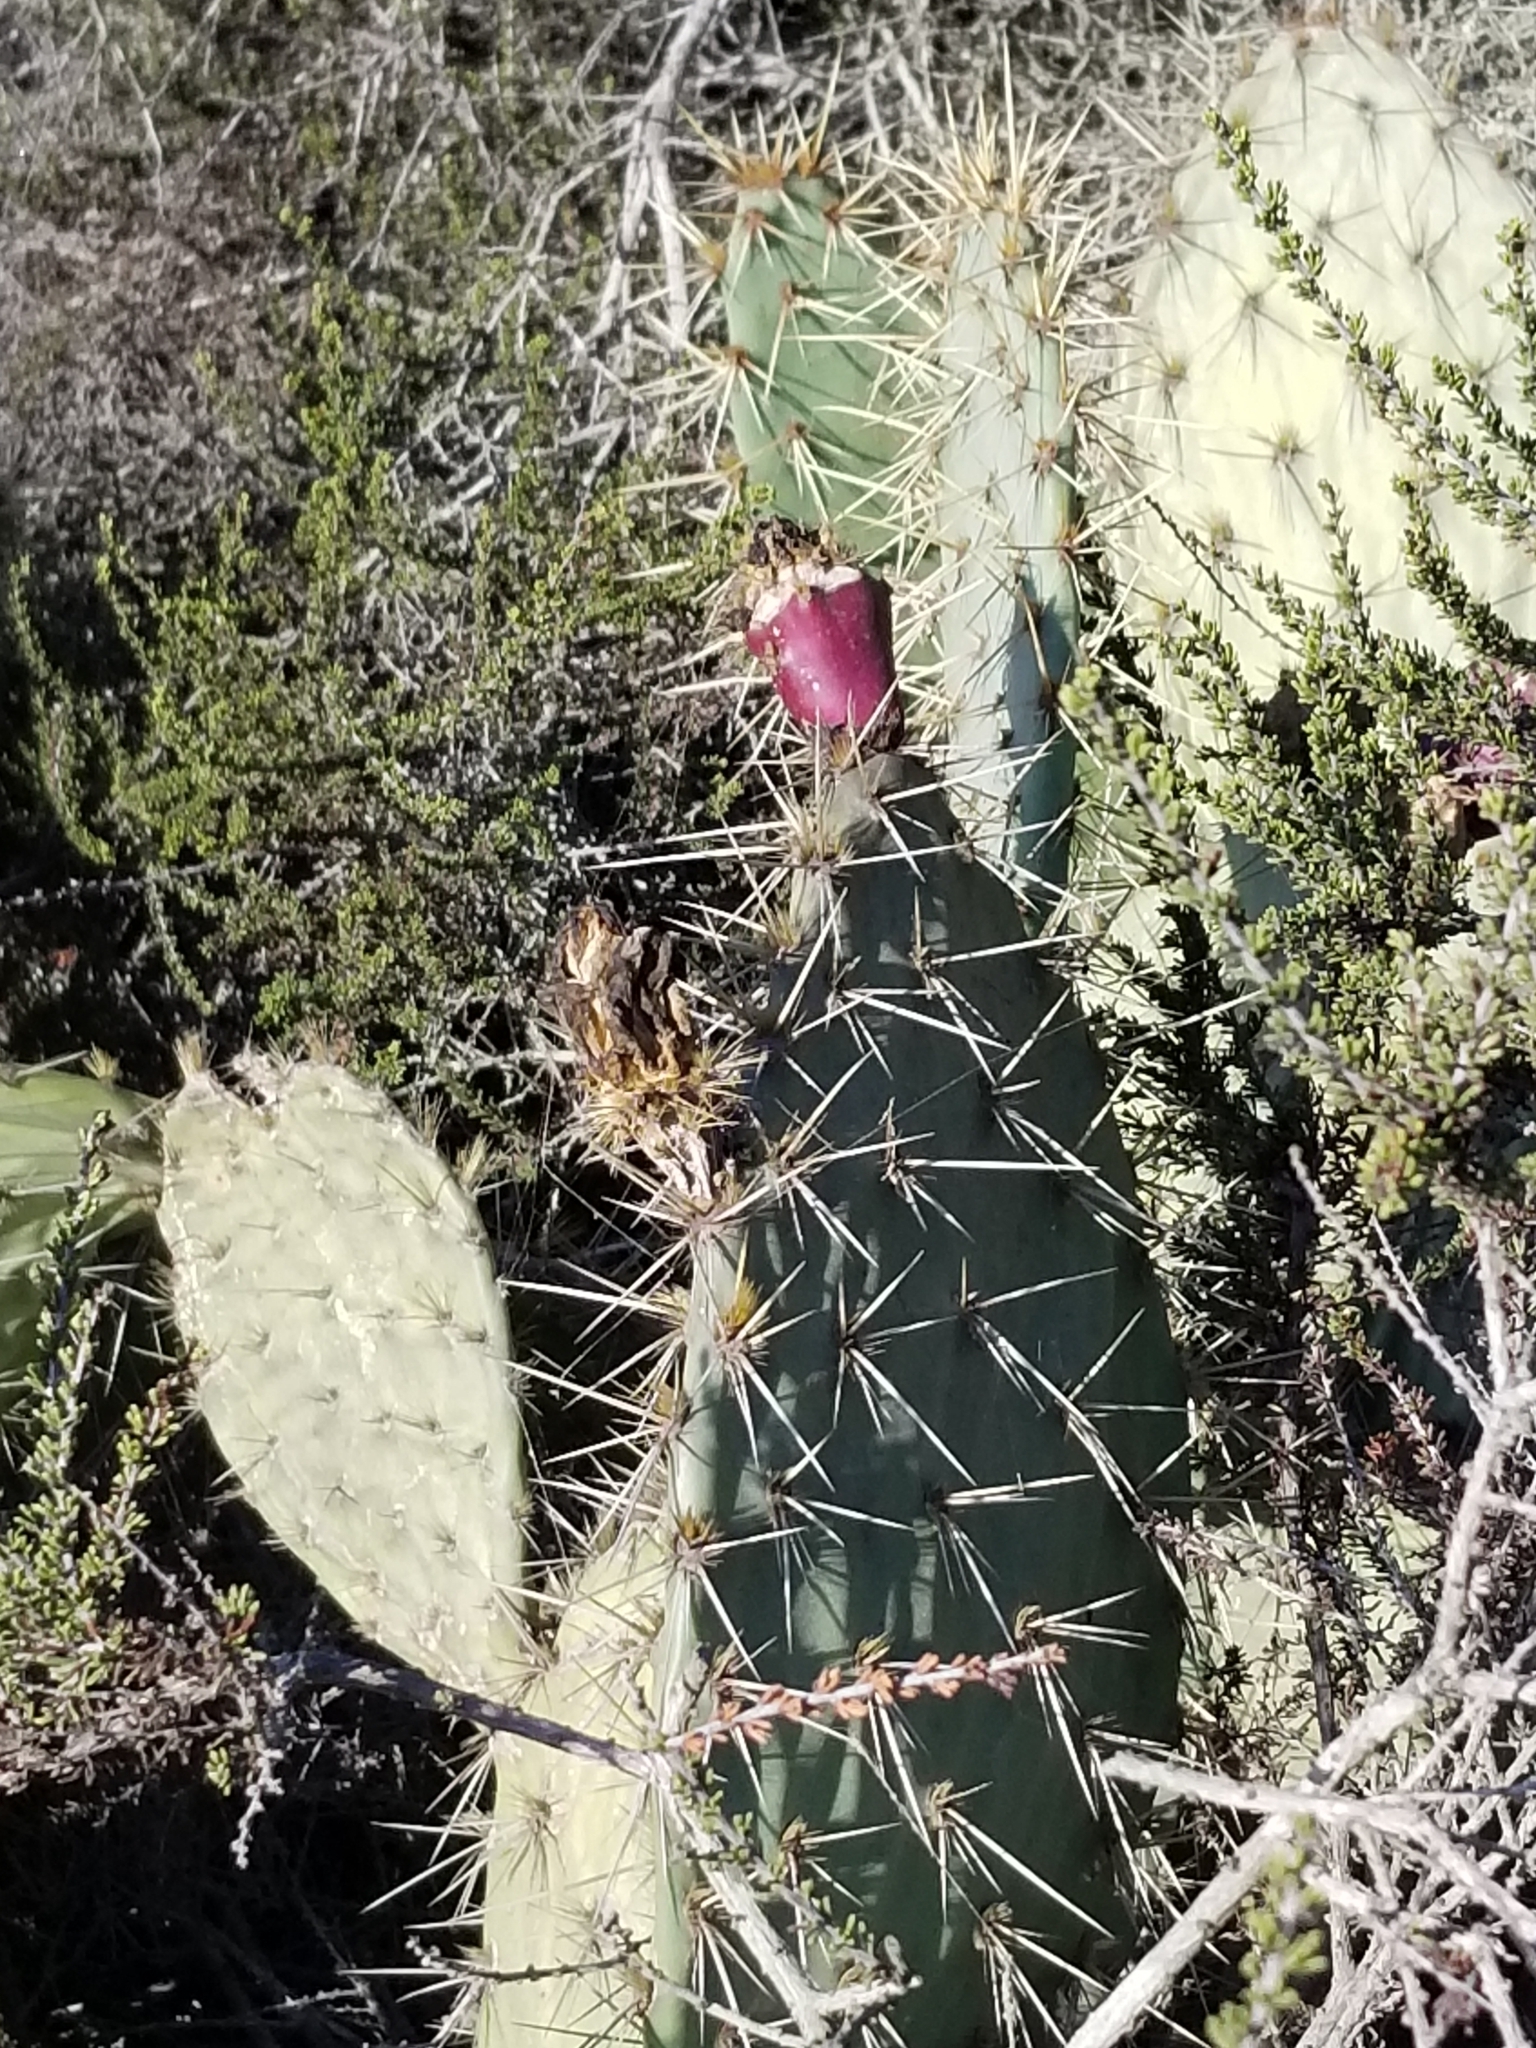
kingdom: Plantae
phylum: Tracheophyta
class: Magnoliopsida
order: Caryophyllales
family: Cactaceae
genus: Opuntia
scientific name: Opuntia littoralis
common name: Coastal prickly-pear
